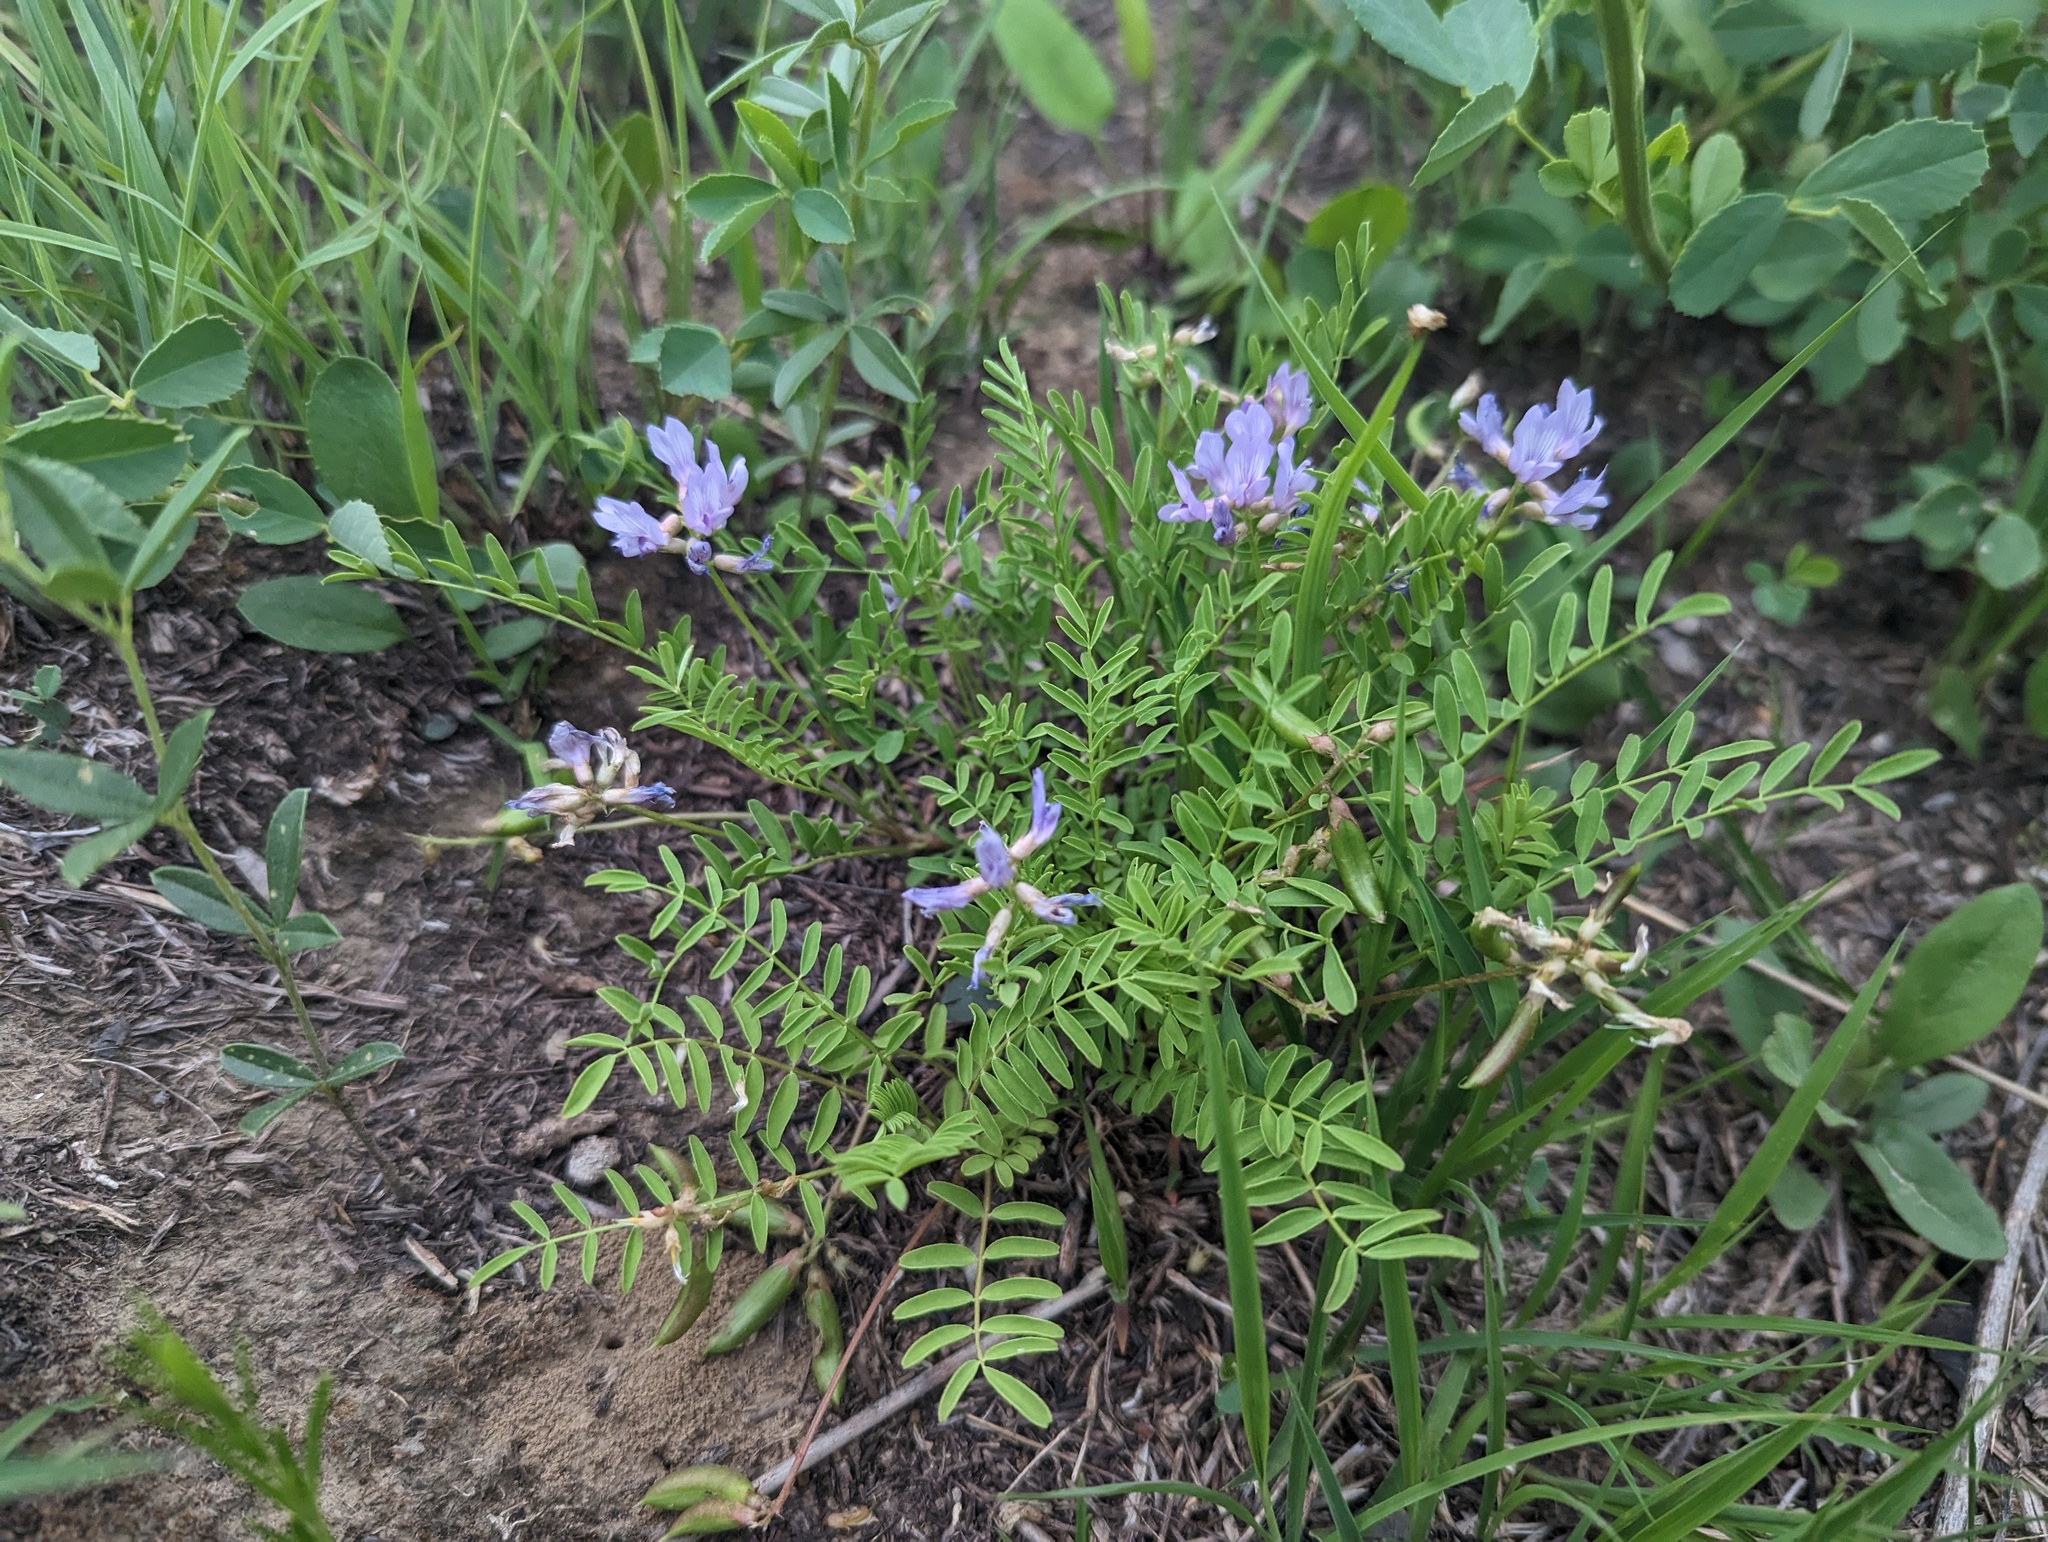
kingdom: Plantae
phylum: Tracheophyta
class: Magnoliopsida
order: Fabales
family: Fabaceae
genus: Astragalus
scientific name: Astragalus distortus
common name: Ozark milk-vetch
